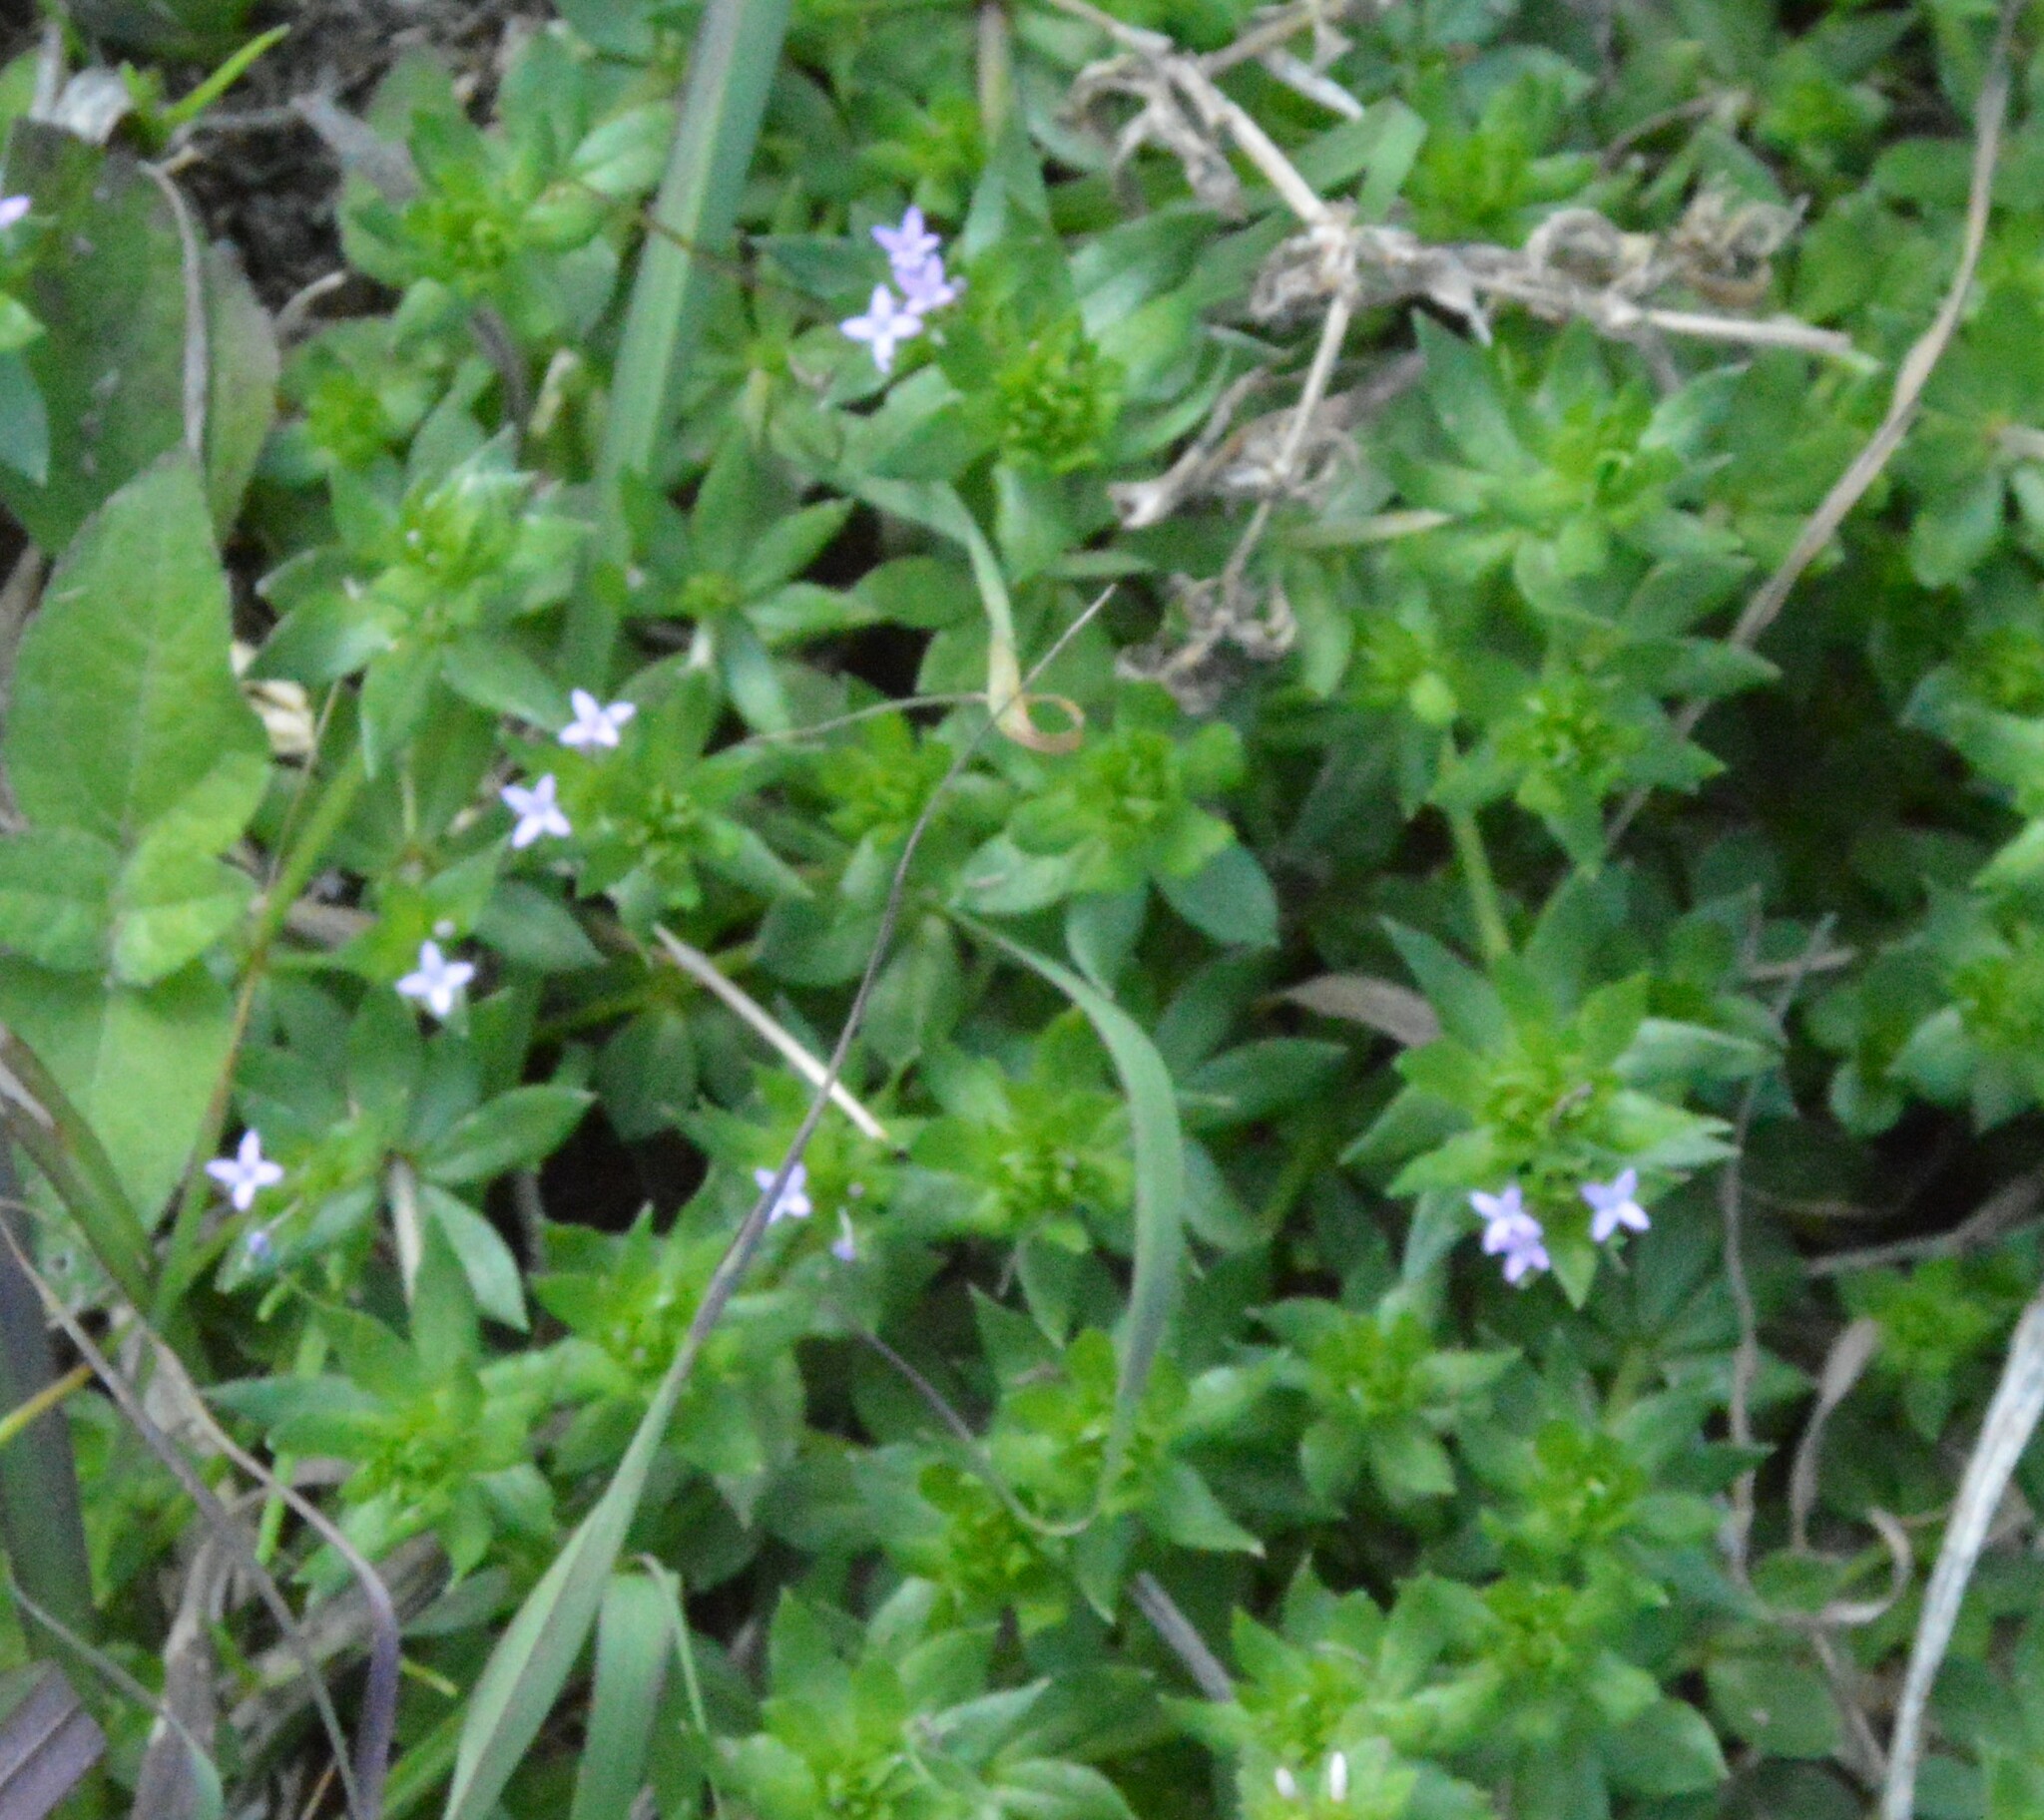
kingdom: Plantae
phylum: Tracheophyta
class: Magnoliopsida
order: Gentianales
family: Rubiaceae
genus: Sherardia
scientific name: Sherardia arvensis
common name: Field madder
